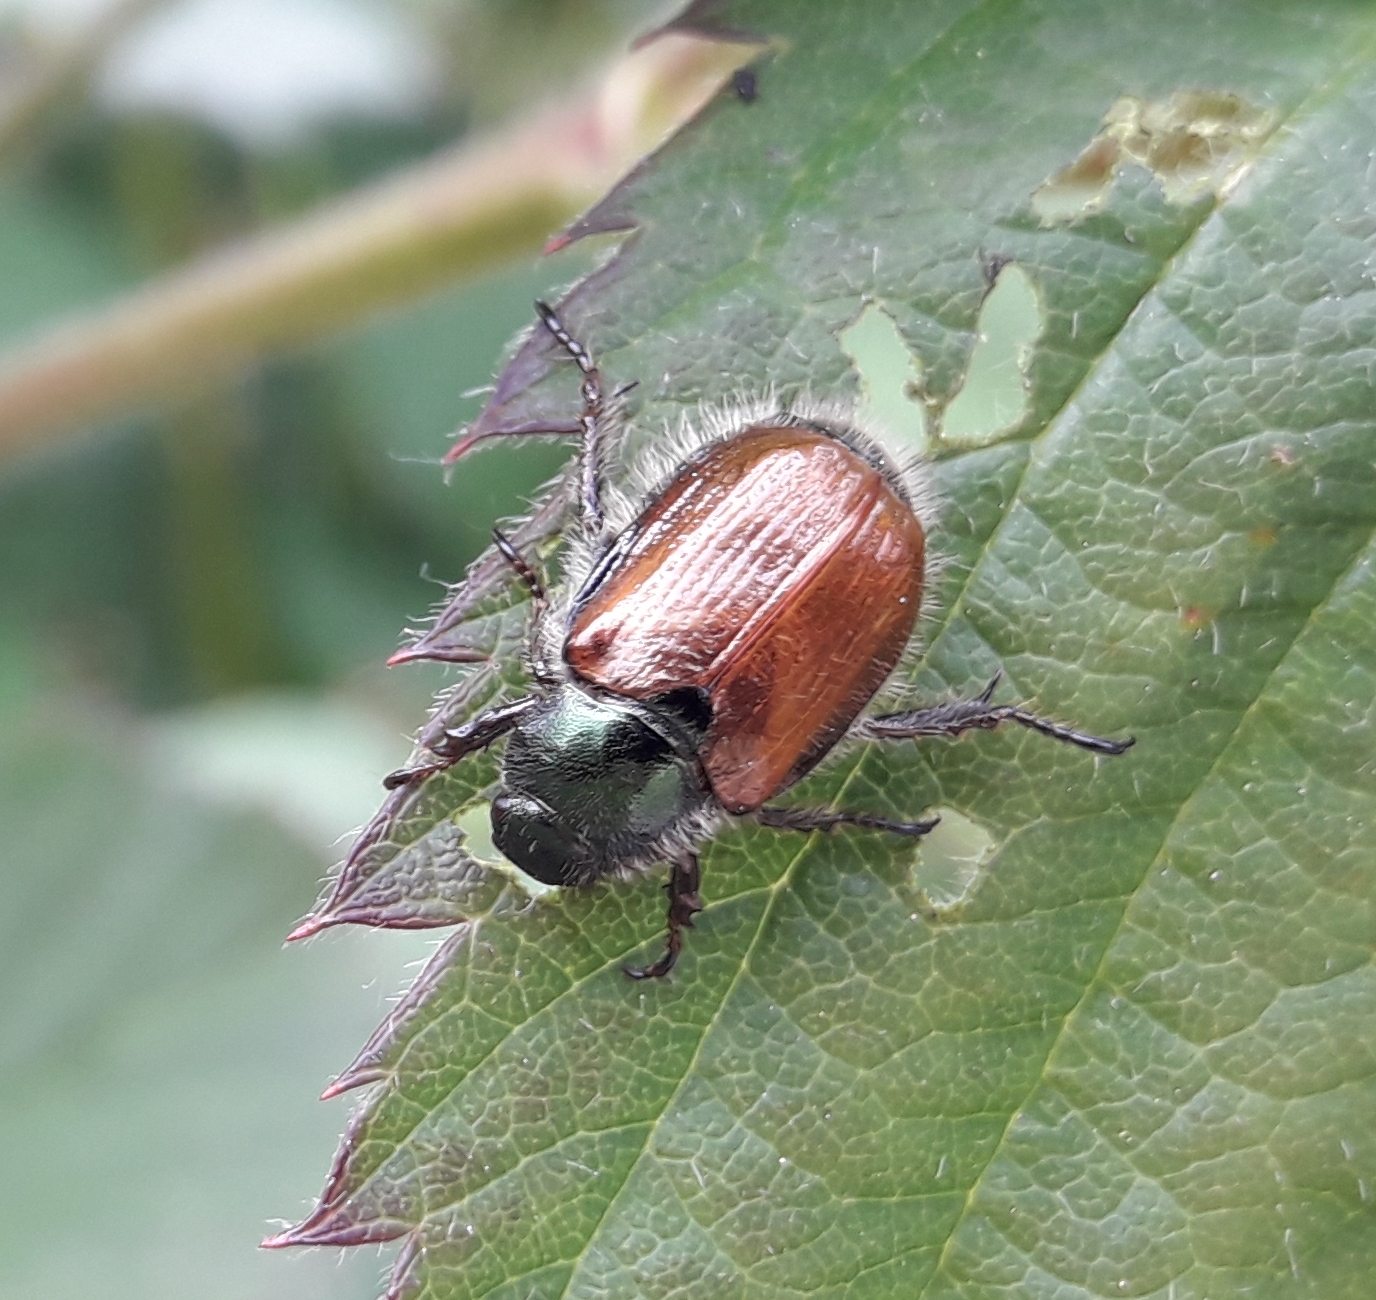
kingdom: Animalia
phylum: Arthropoda
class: Insecta
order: Coleoptera
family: Scarabaeidae
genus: Phyllopertha
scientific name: Phyllopertha horticola
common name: Garden chafer
